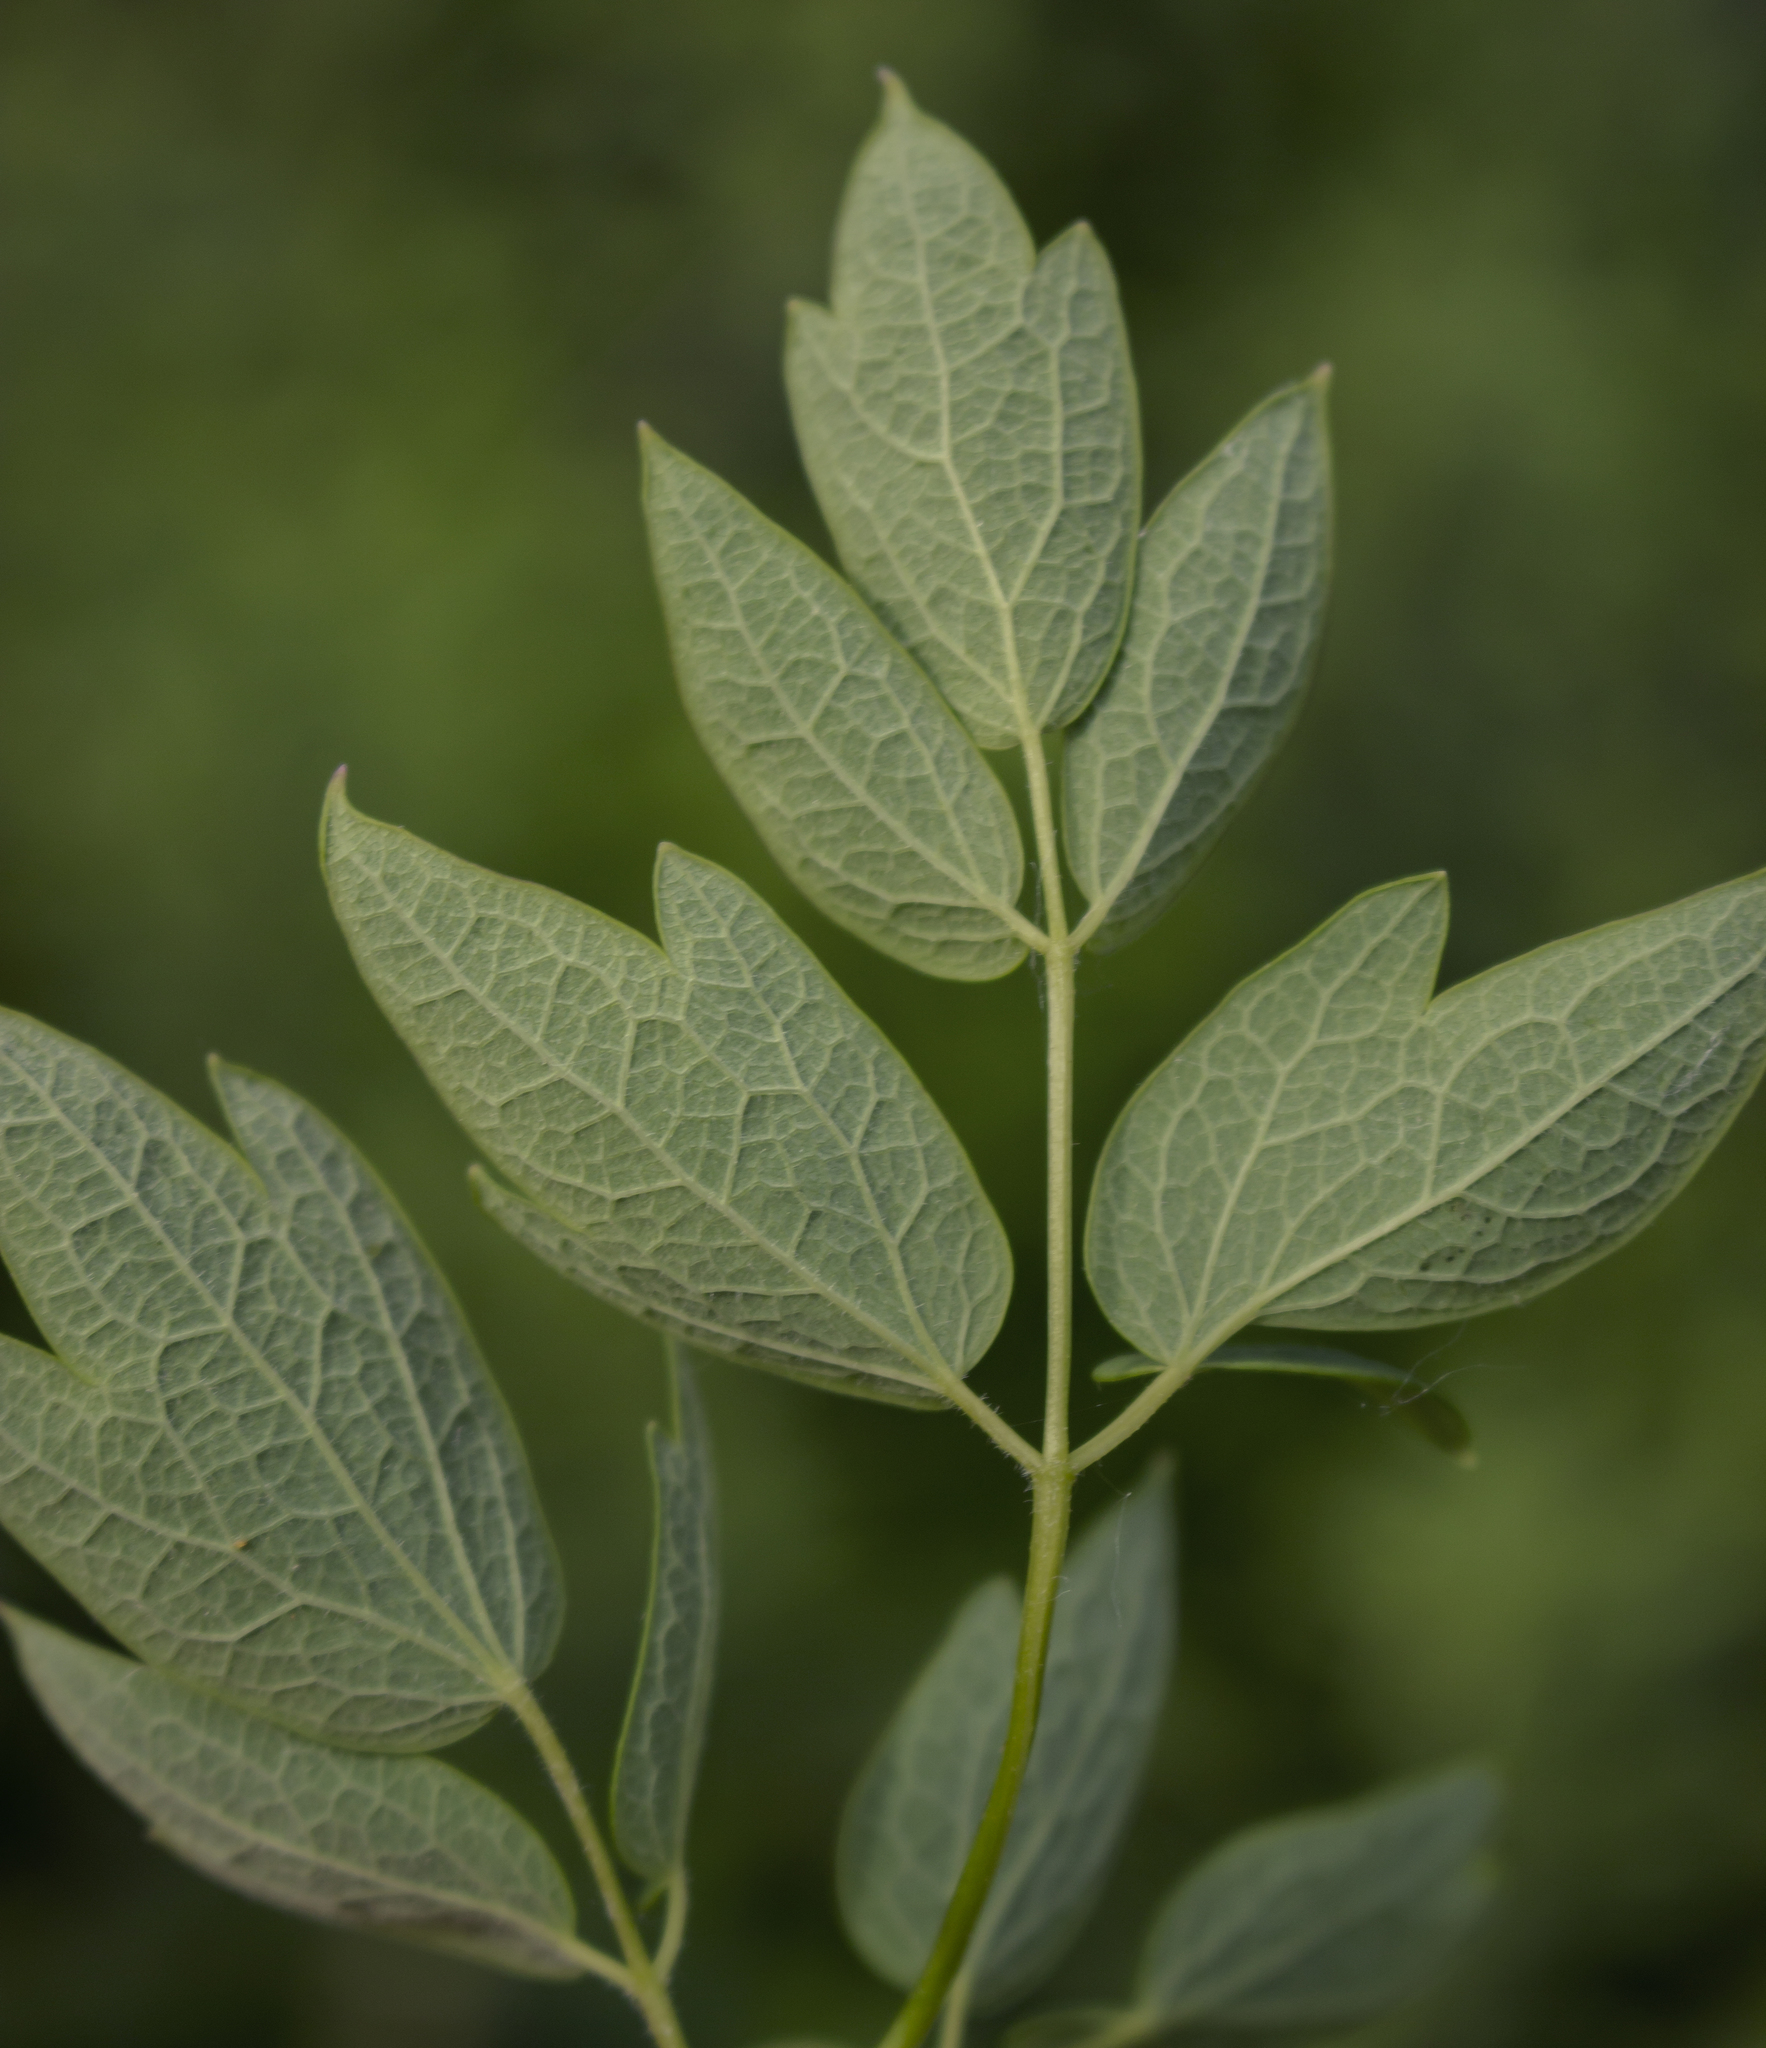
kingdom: Plantae
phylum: Tracheophyta
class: Magnoliopsida
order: Ranunculales
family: Ranunculaceae
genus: Thalictrum
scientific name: Thalictrum dasycarpum
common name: Purple meadow-rue
